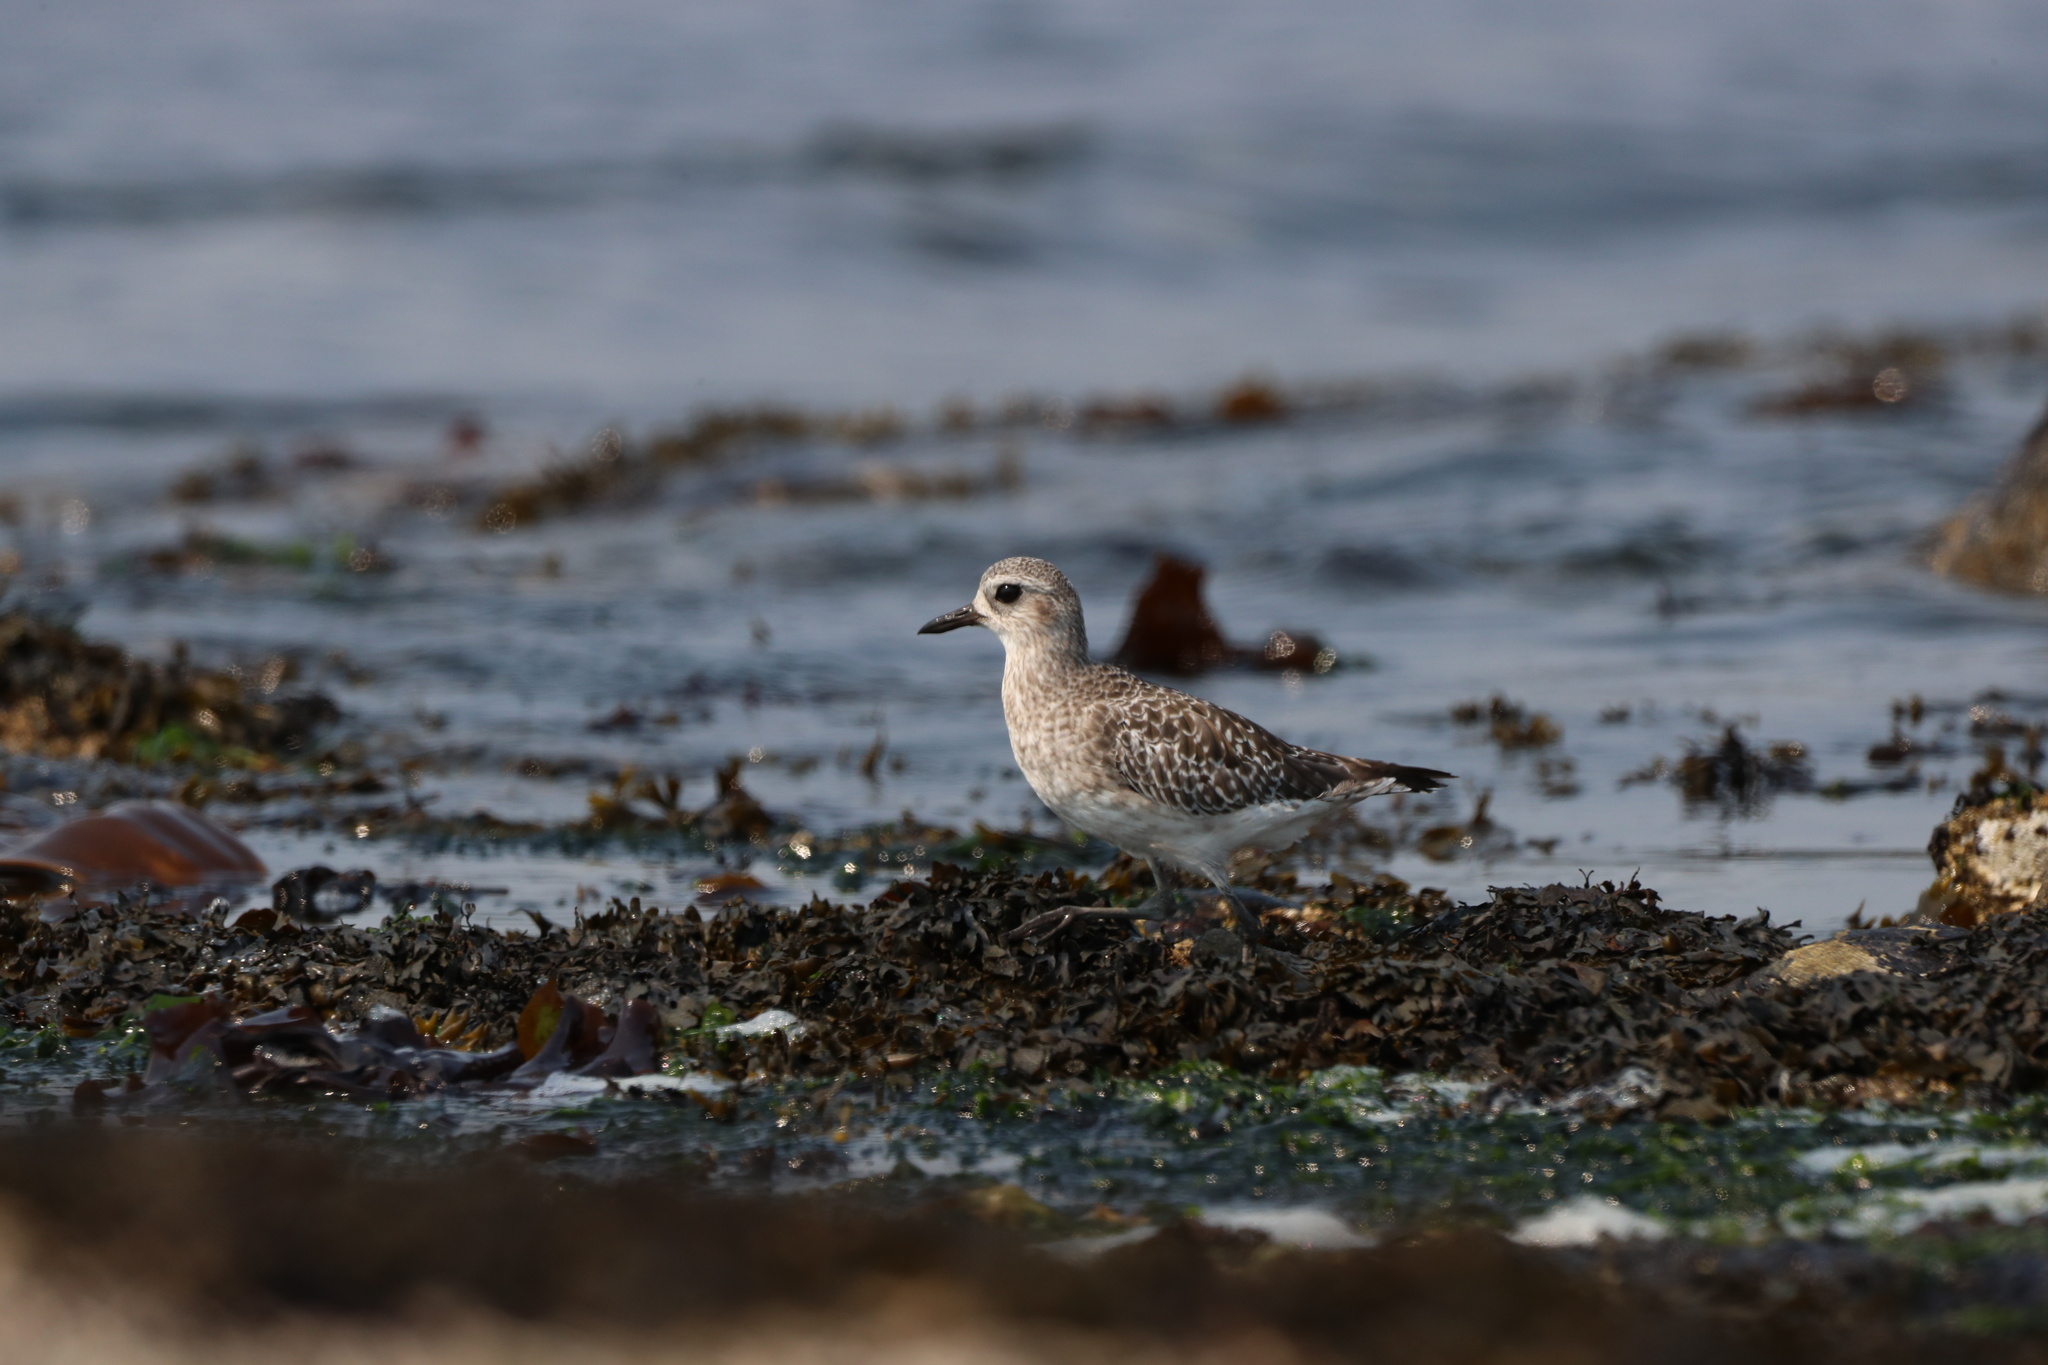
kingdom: Animalia
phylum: Chordata
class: Aves
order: Charadriiformes
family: Charadriidae
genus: Pluvialis
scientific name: Pluvialis squatarola
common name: Grey plover
